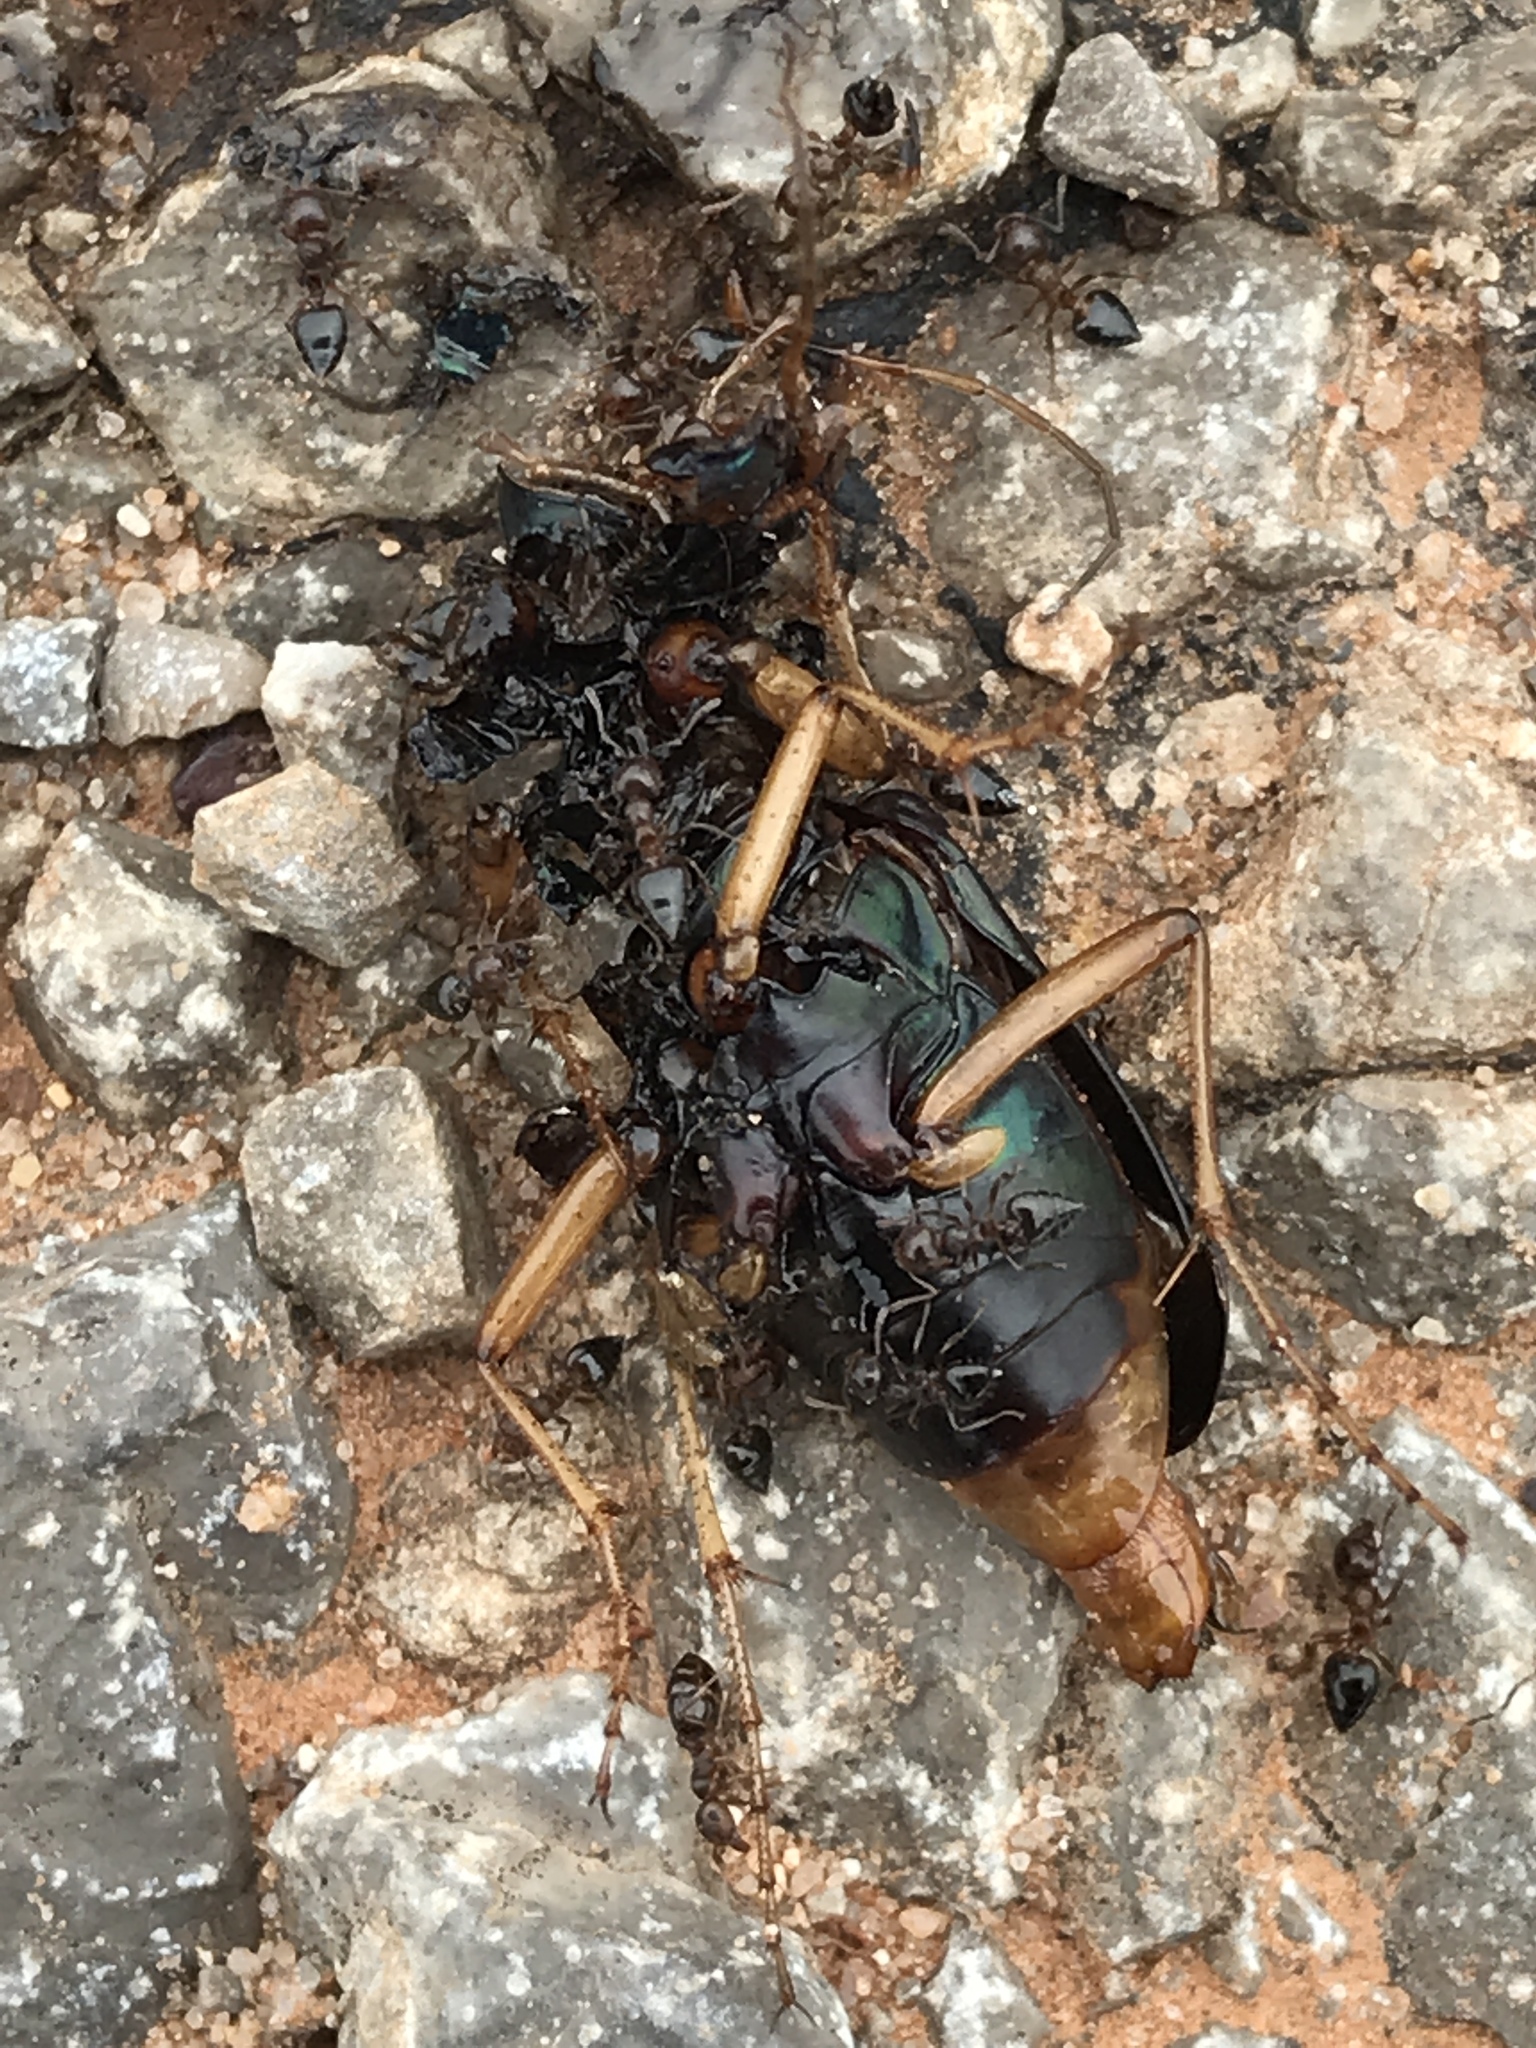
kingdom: Animalia
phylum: Arthropoda
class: Insecta
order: Coleoptera
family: Carabidae
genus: Tetracha
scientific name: Tetracha virginica
